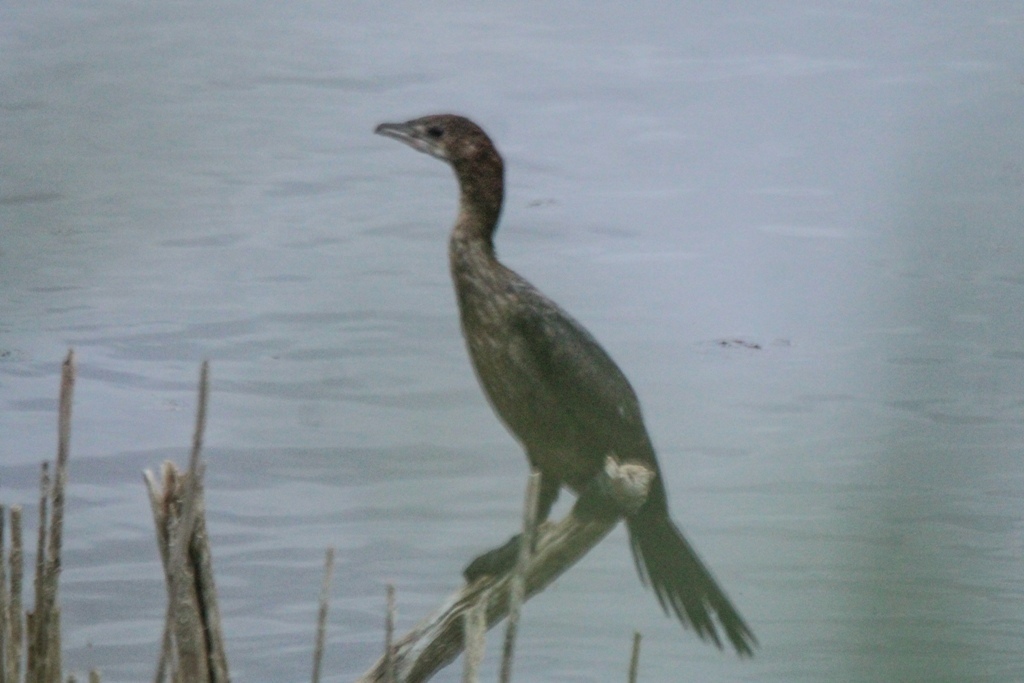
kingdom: Animalia
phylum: Chordata
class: Aves
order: Suliformes
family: Phalacrocoracidae
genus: Microcarbo
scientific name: Microcarbo pygmaeus
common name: Pygmy cormorant
